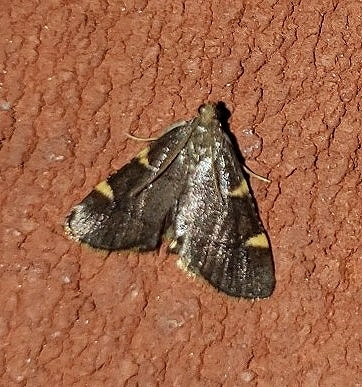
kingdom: Animalia
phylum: Arthropoda
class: Insecta
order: Lepidoptera
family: Pyralidae
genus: Hypsopygia
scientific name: Hypsopygia olinalis
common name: Yellow-fringed dolichomia moth
